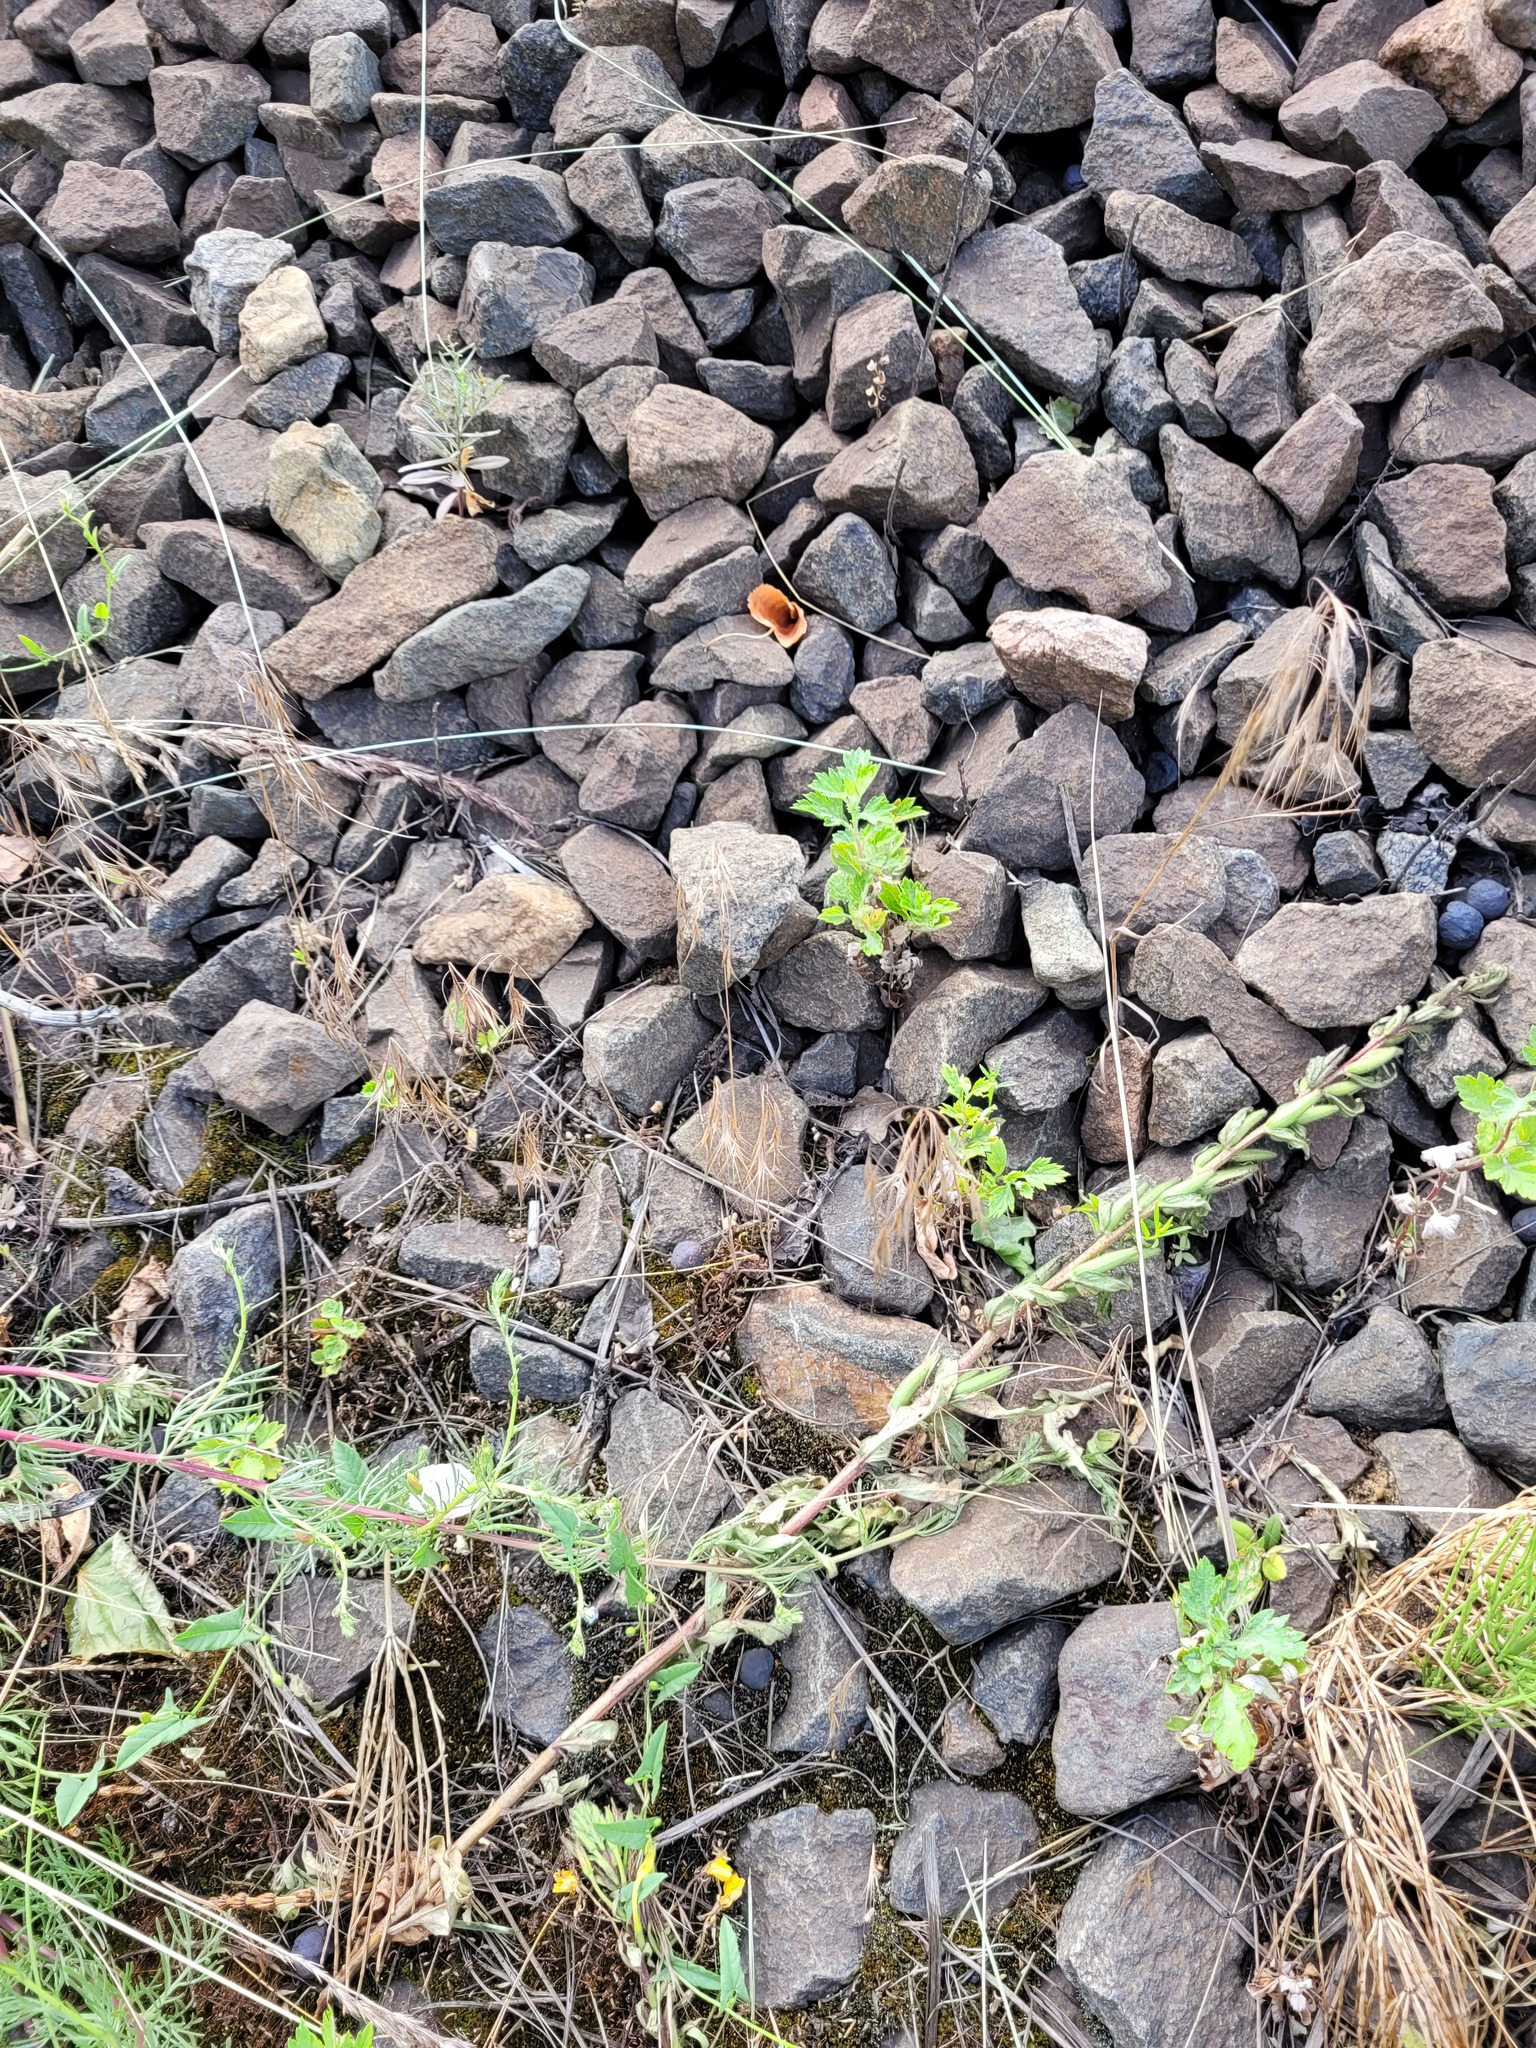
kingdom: Plantae
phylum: Tracheophyta
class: Liliopsida
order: Poales
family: Poaceae
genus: Bromus
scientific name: Bromus tectorum
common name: Cheatgrass
